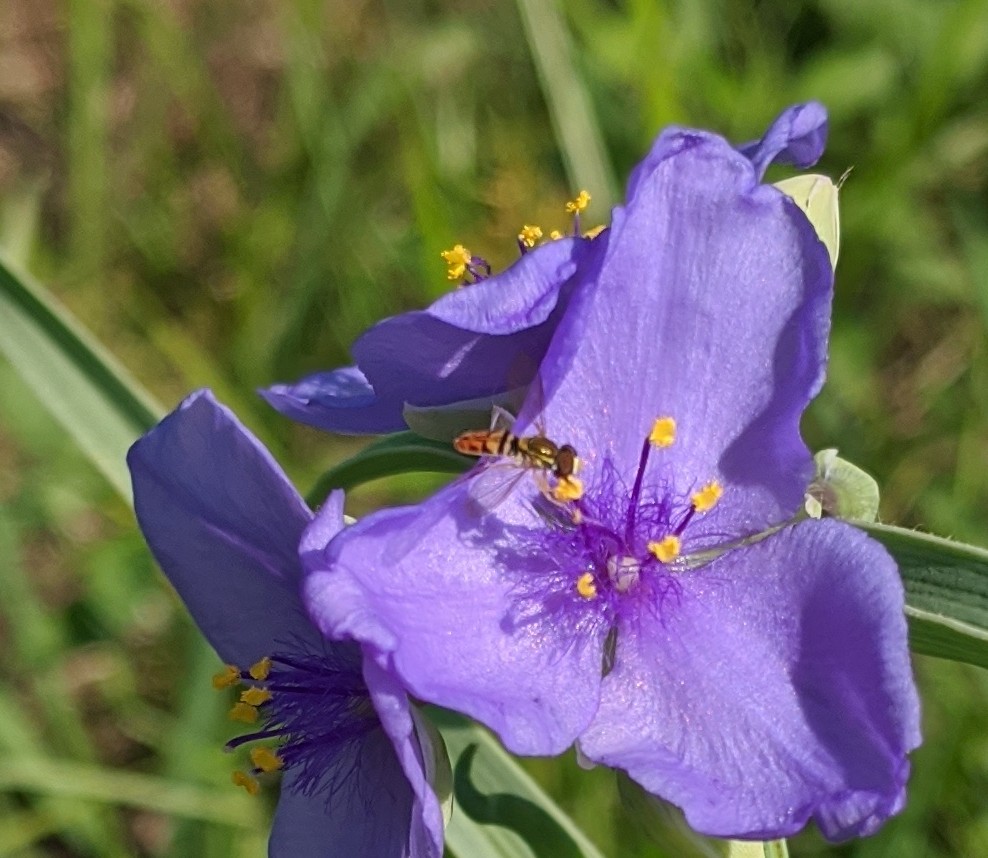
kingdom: Animalia
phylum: Arthropoda
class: Insecta
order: Diptera
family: Syrphidae
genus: Toxomerus
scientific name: Toxomerus marginatus
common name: Syrphid fly
